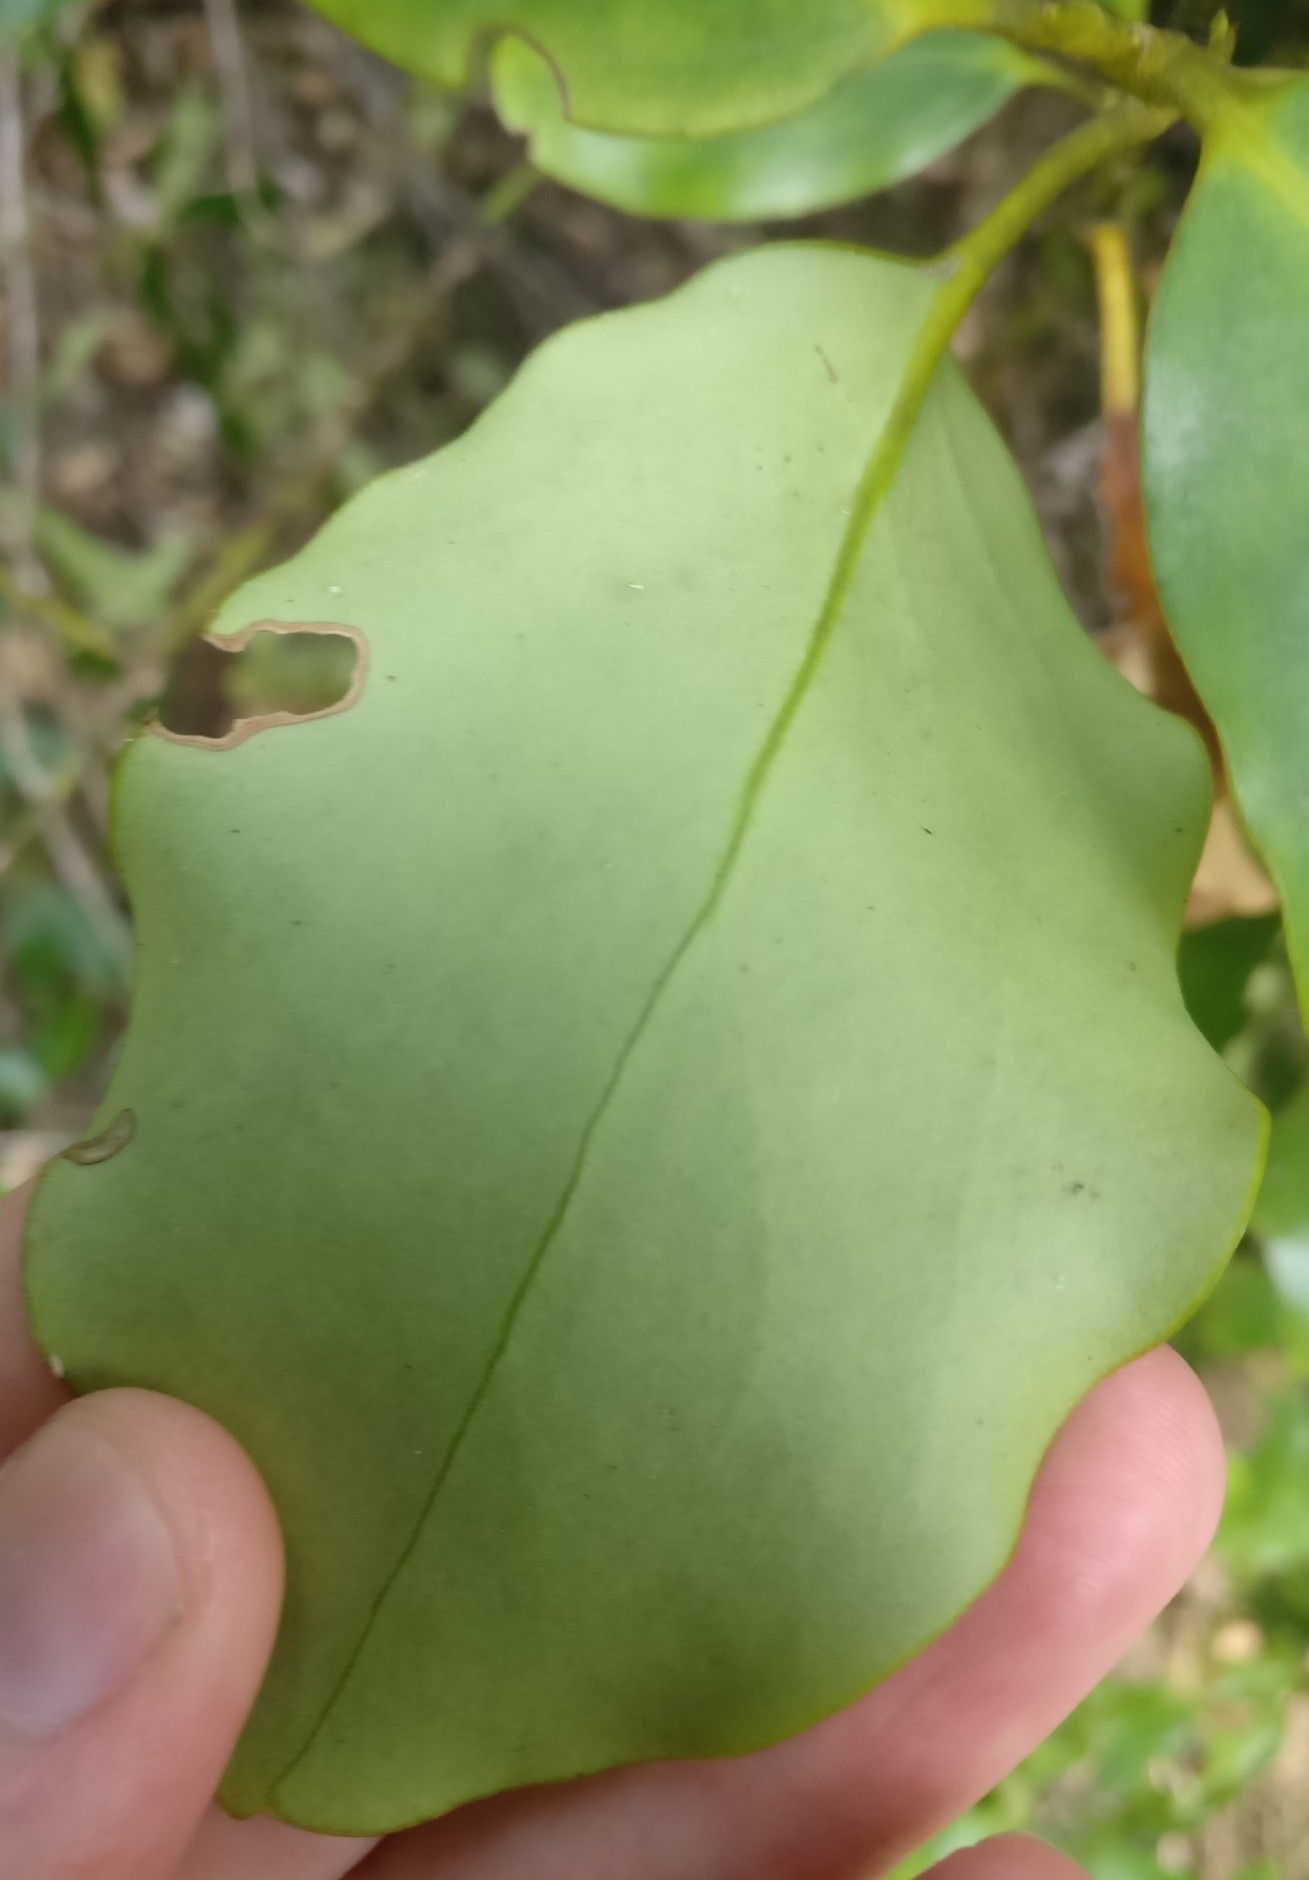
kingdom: Plantae
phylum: Tracheophyta
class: Magnoliopsida
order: Apiales
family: Griseliniaceae
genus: Griselinia
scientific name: Griselinia littoralis
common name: New zealand broadleaf
